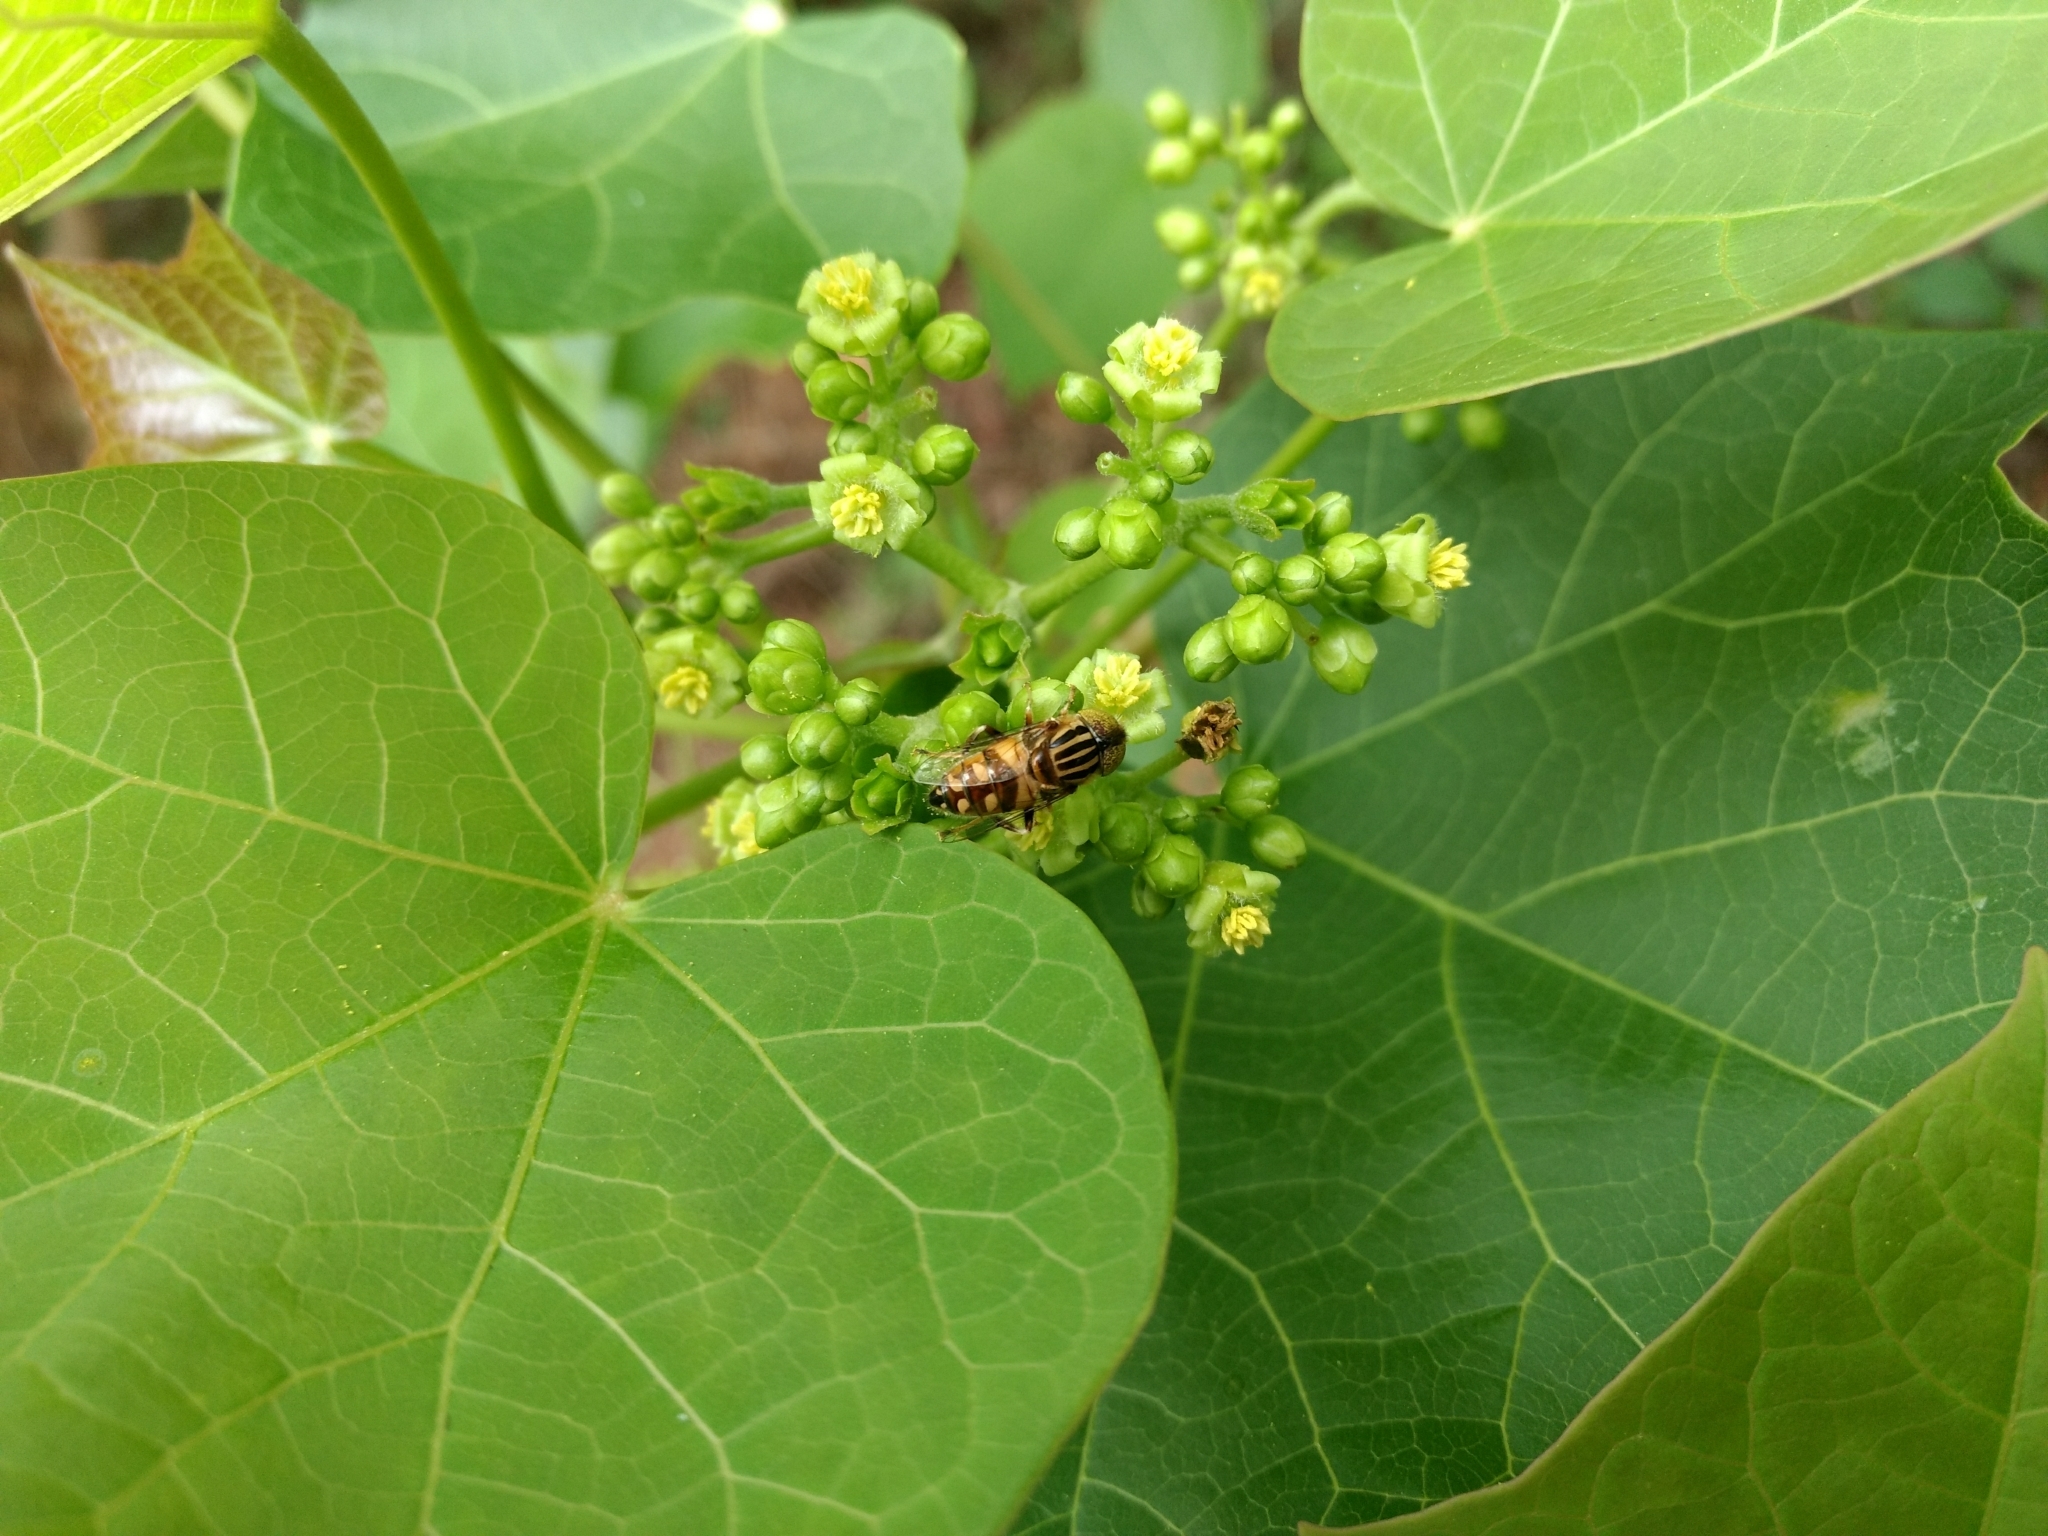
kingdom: Plantae
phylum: Tracheophyta
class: Magnoliopsida
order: Malpighiales
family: Euphorbiaceae
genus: Jatropha
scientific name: Jatropha curcas
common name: Barbados nut
